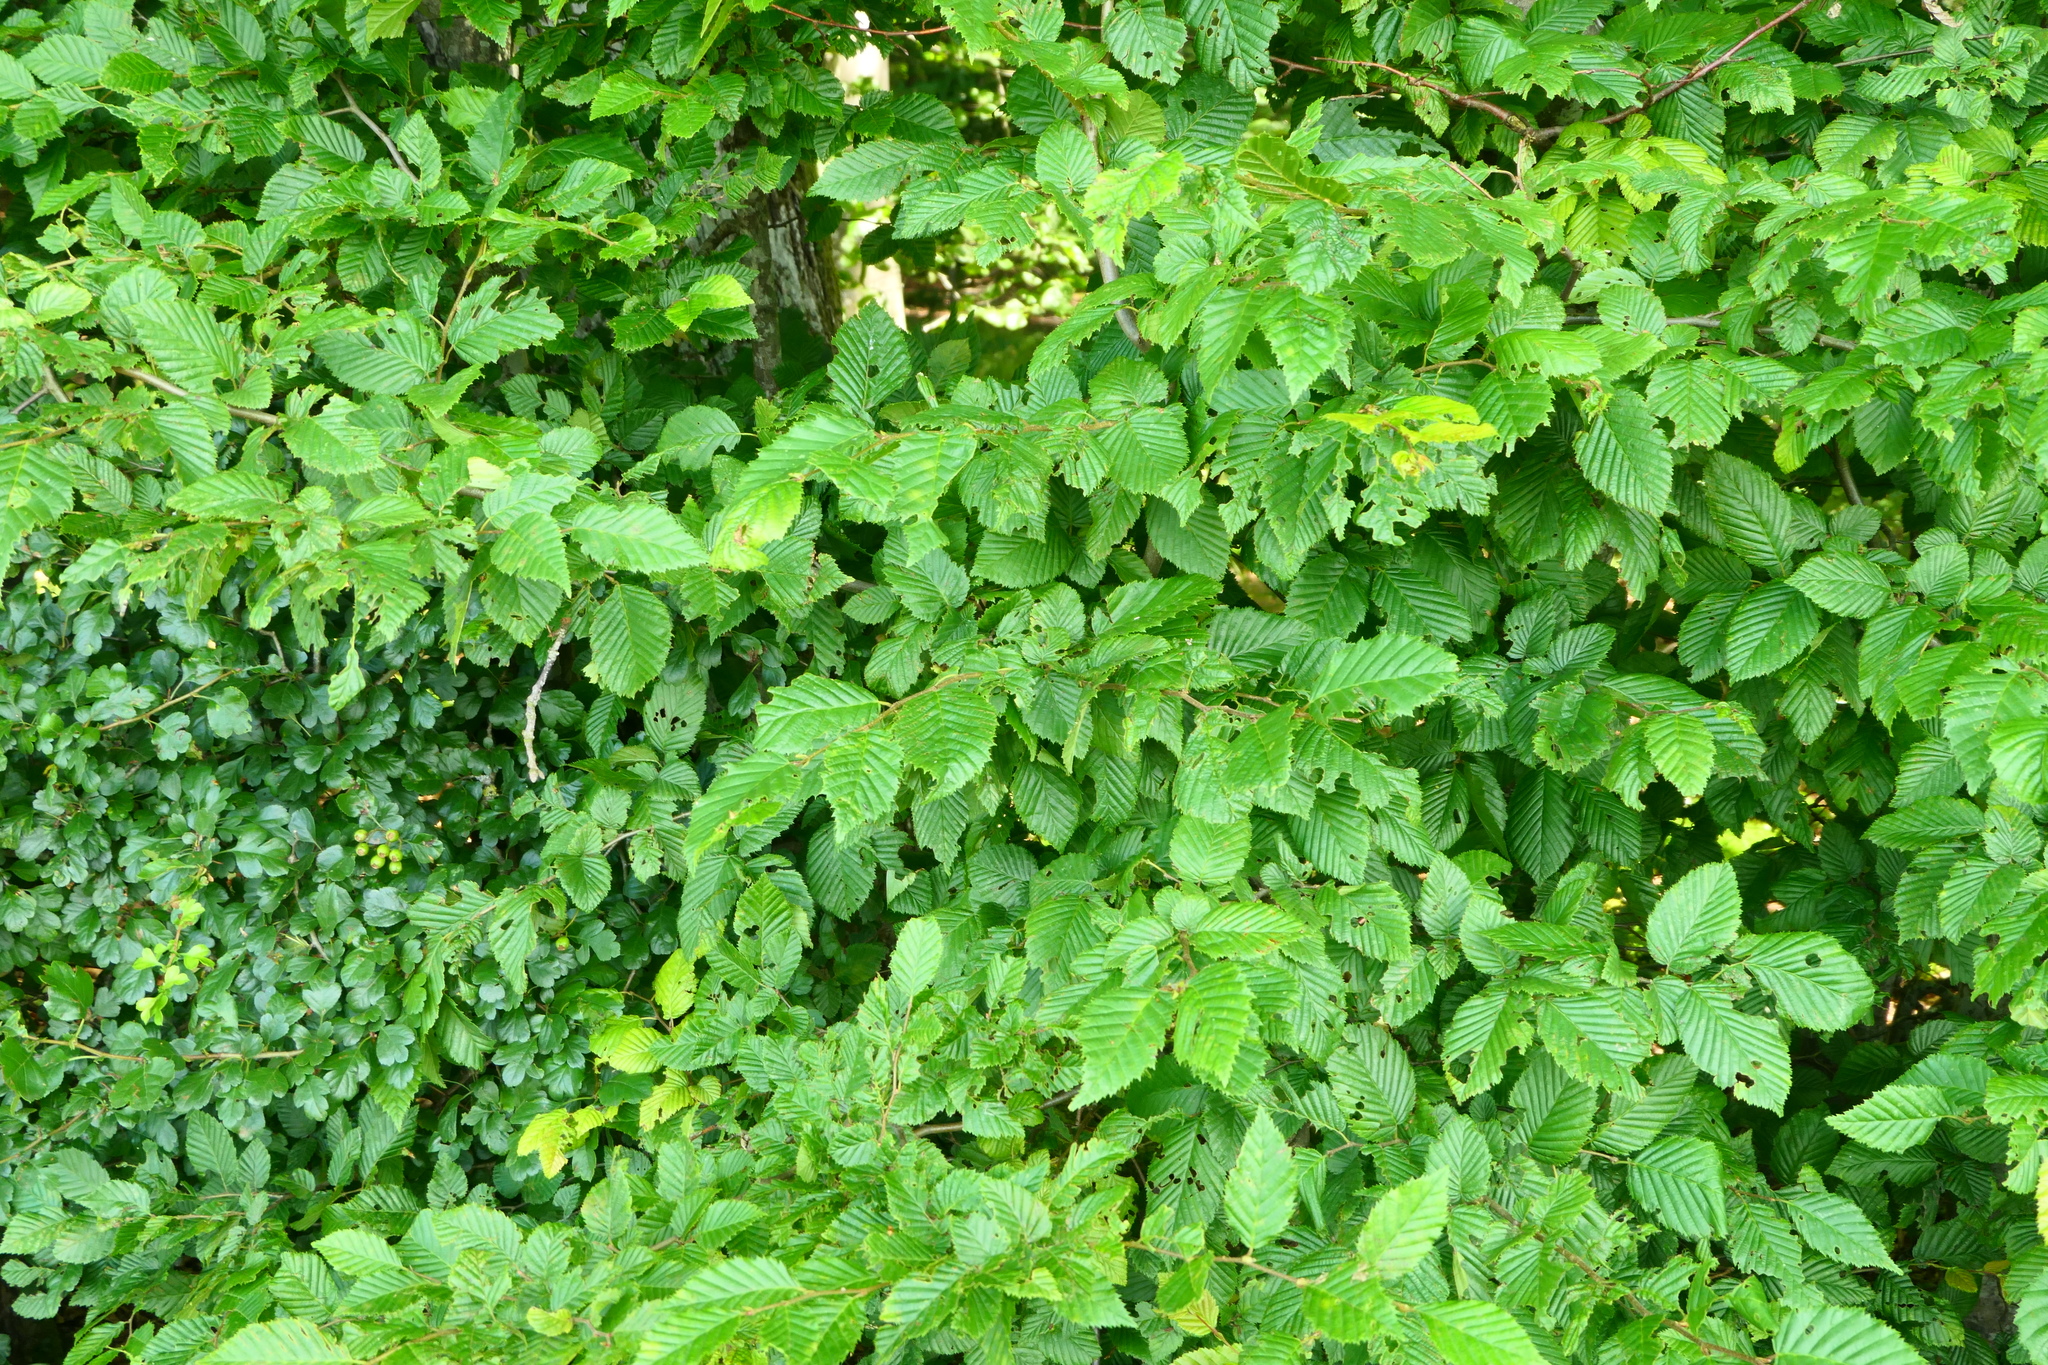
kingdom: Plantae
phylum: Tracheophyta
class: Magnoliopsida
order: Fagales
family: Betulaceae
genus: Carpinus
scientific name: Carpinus betulus
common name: Hornbeam
